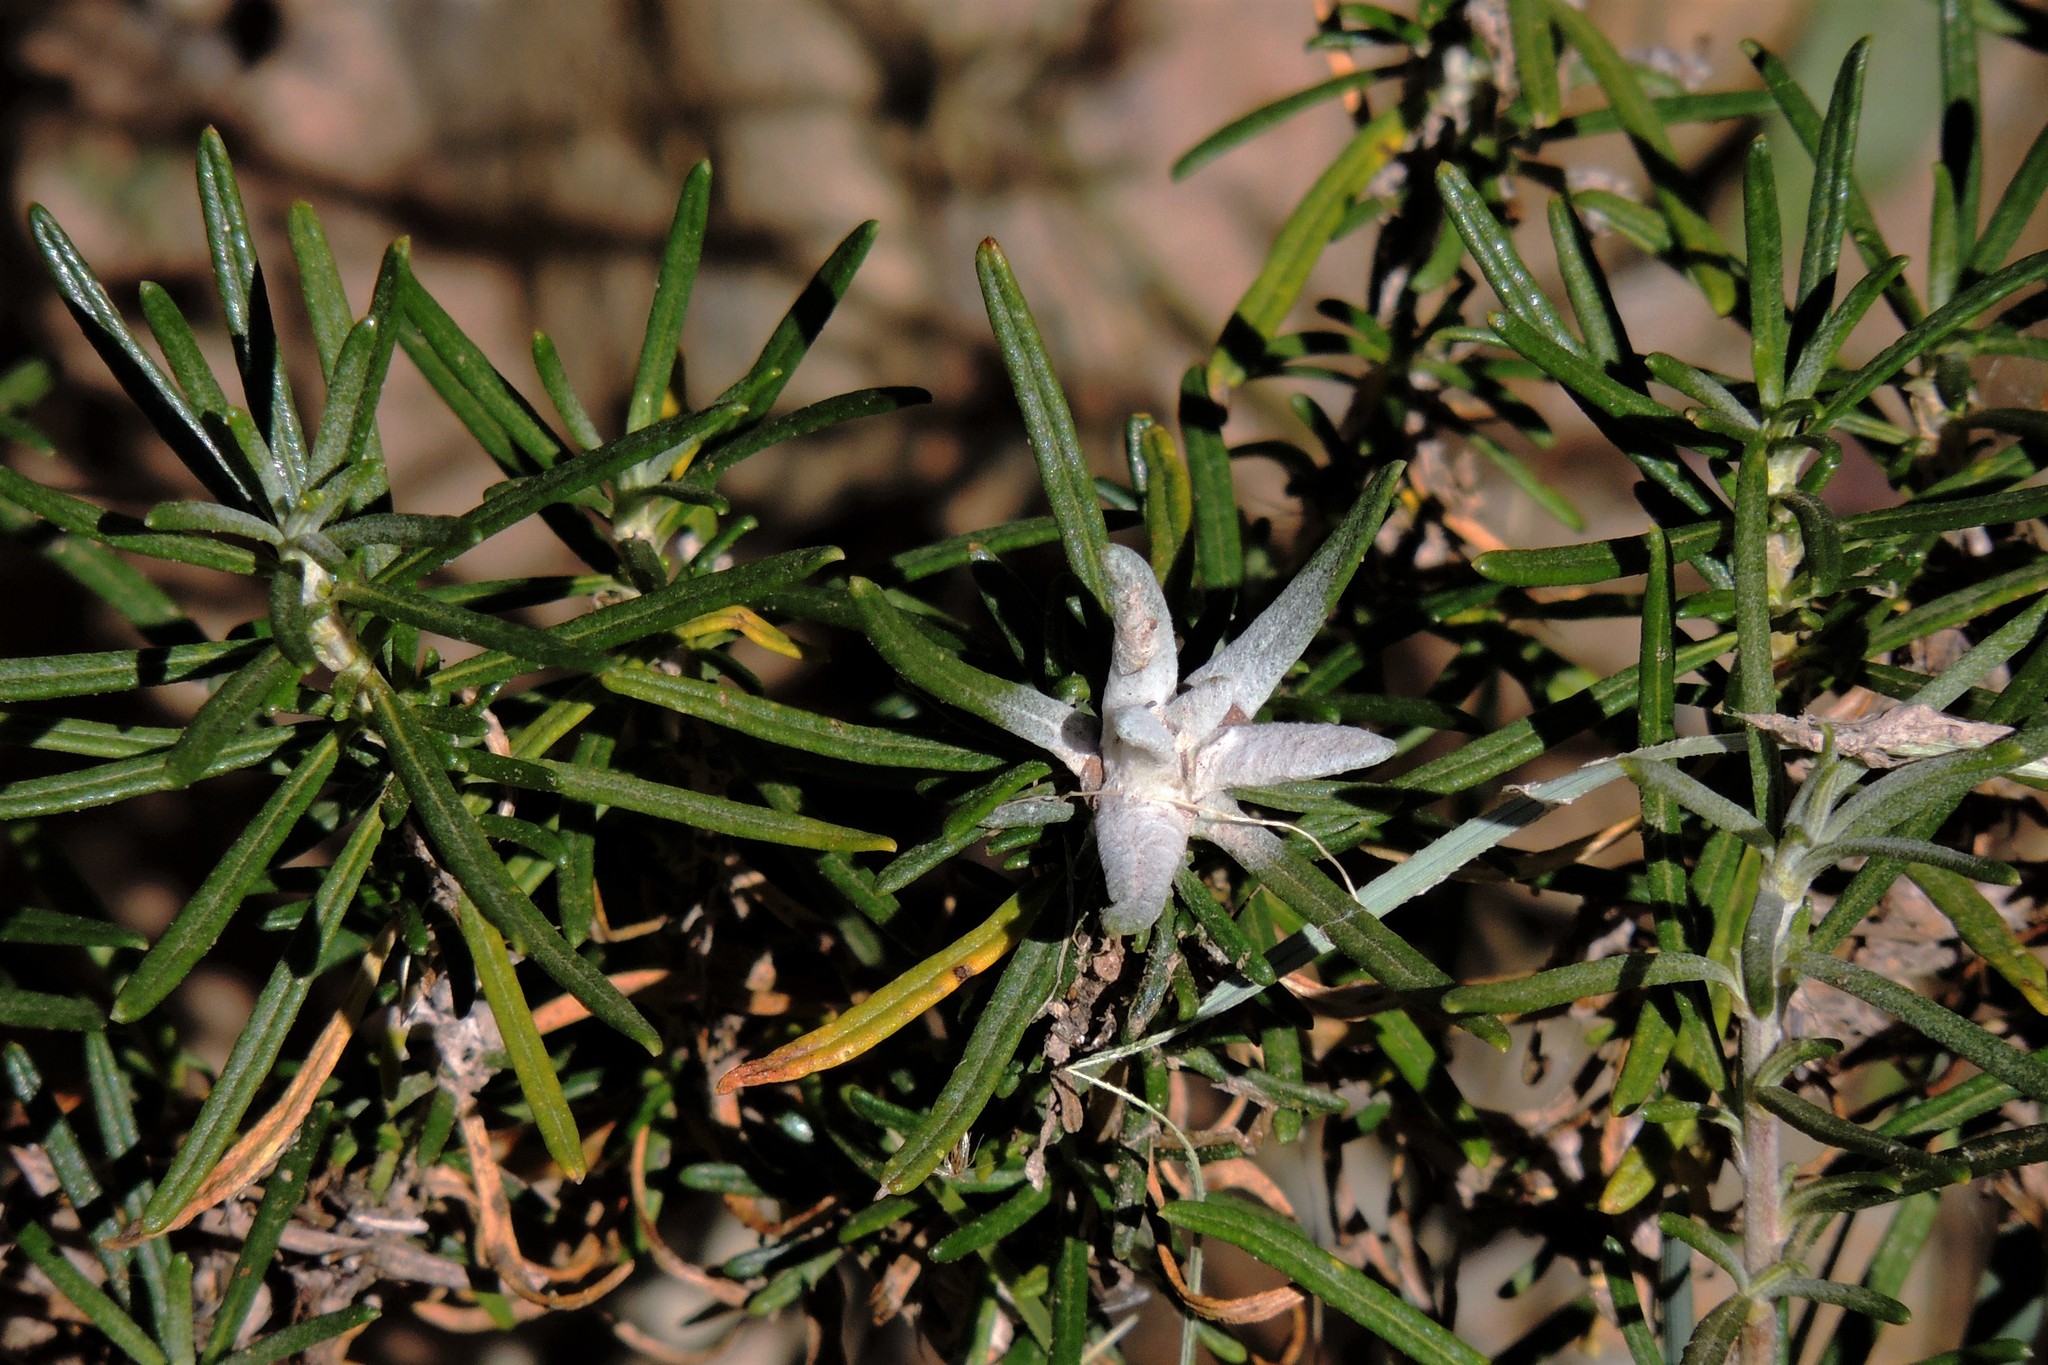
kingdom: Plantae
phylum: Tracheophyta
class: Magnoliopsida
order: Asterales
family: Asteraceae
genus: Baccharis
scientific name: Baccharis grisebachii
